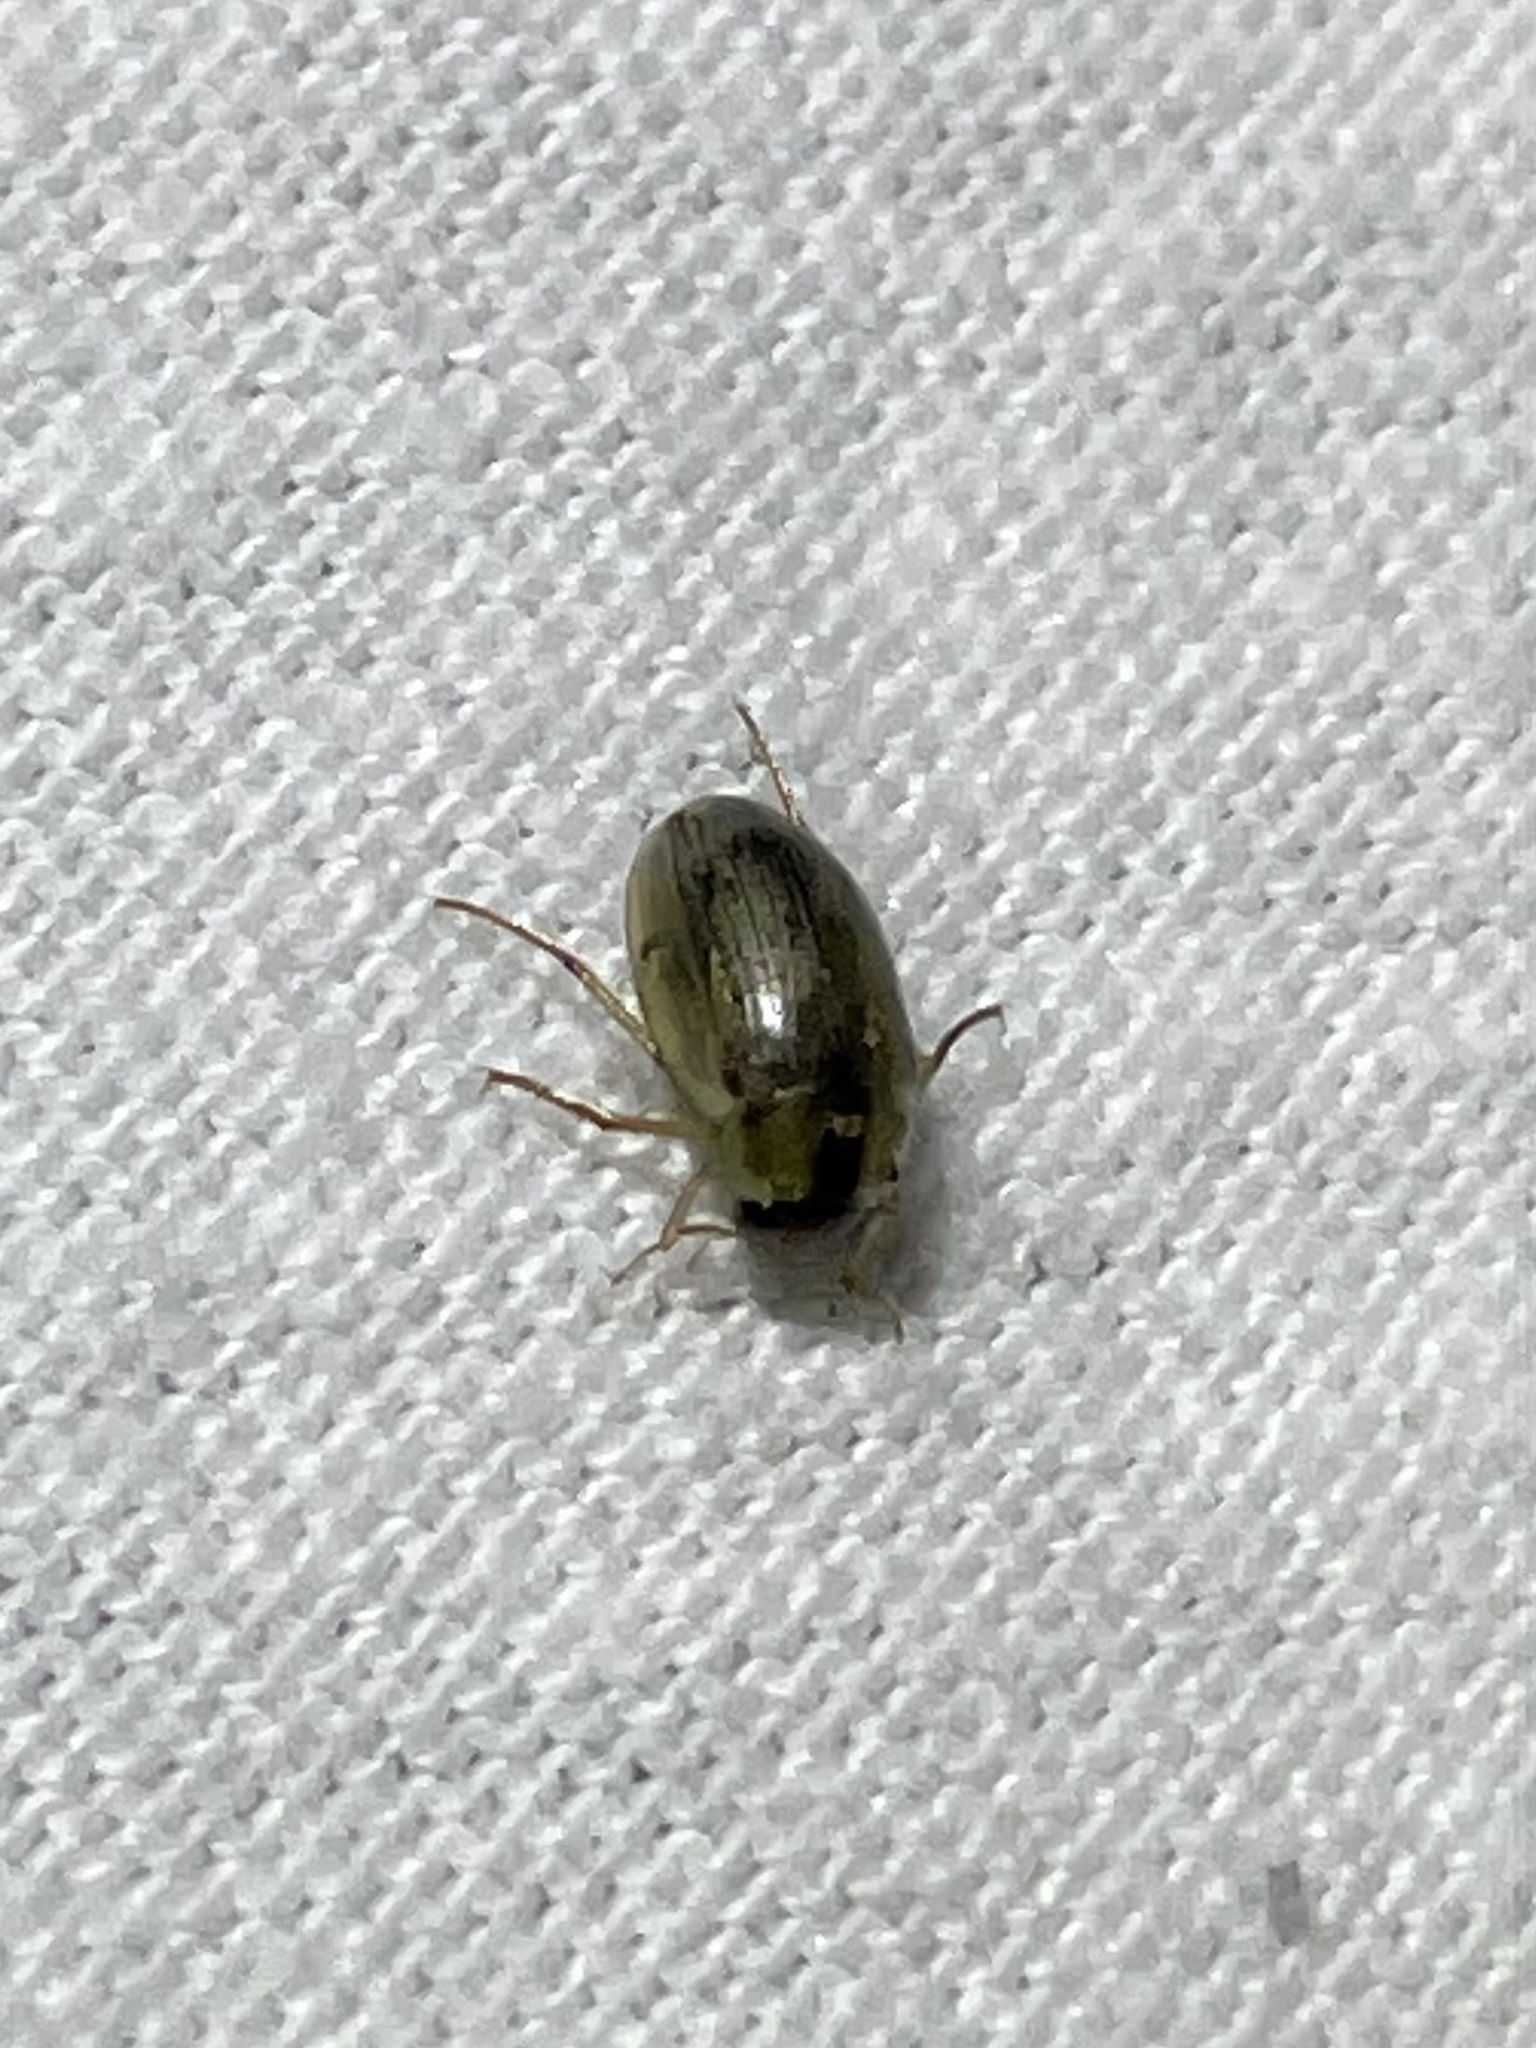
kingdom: Animalia
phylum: Arthropoda
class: Insecta
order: Coleoptera
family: Hydrophilidae
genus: Berosus
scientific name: Berosus
